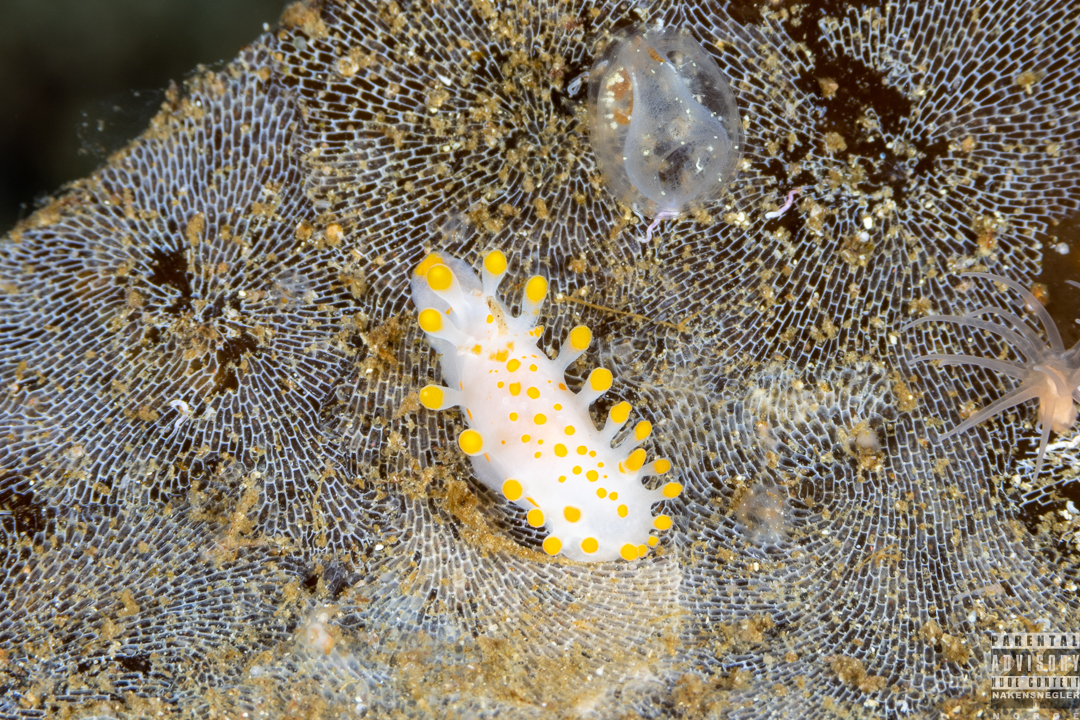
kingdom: Animalia
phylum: Mollusca
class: Gastropoda
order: Nudibranchia
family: Polyceridae
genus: Limacia
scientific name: Limacia clavigera
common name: Orange-clubbed sea slug
